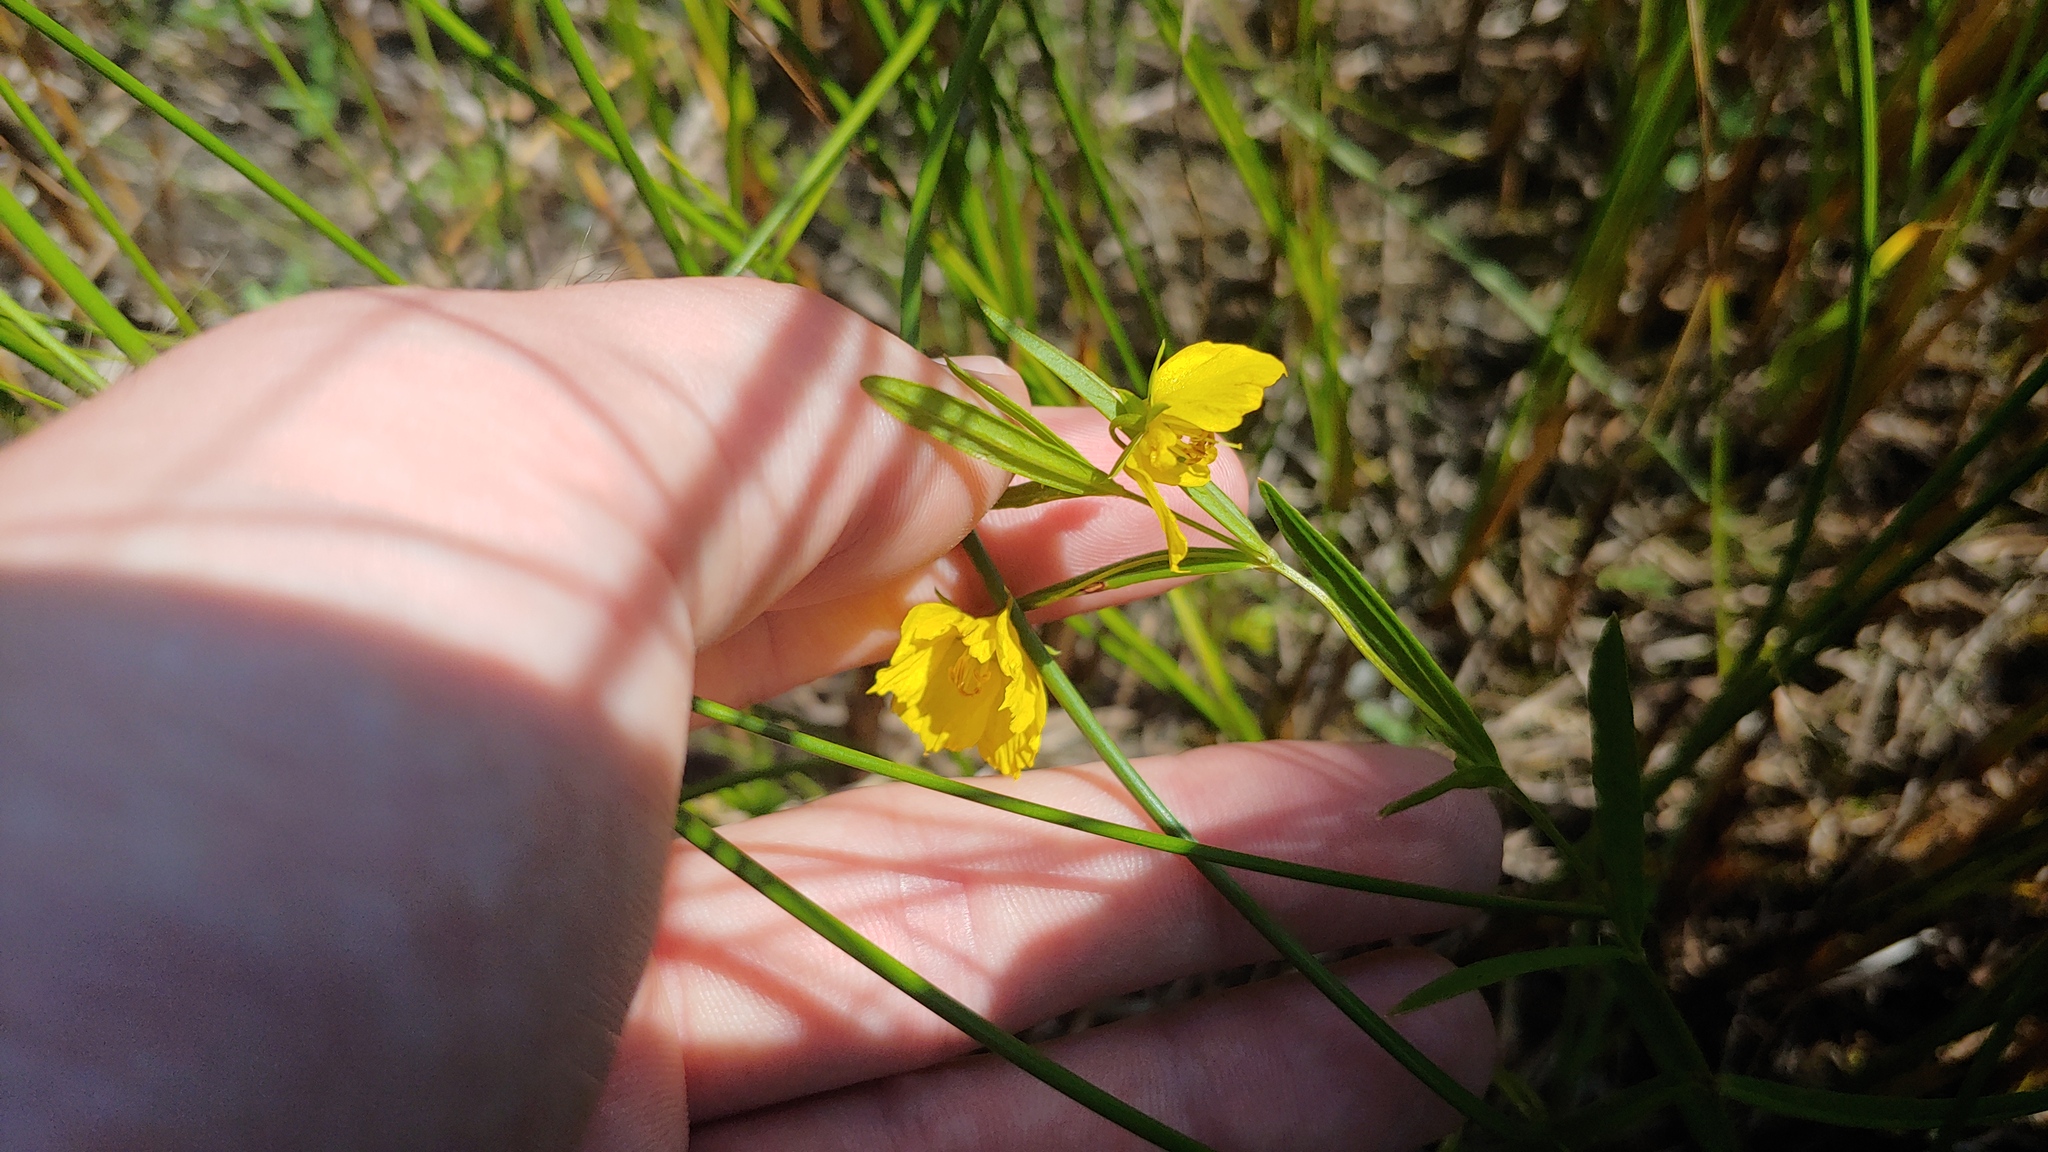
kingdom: Plantae
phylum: Tracheophyta
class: Magnoliopsida
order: Ericales
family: Primulaceae
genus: Lysimachia
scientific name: Lysimachia quadriflora
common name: Four-flowered loosestrife
